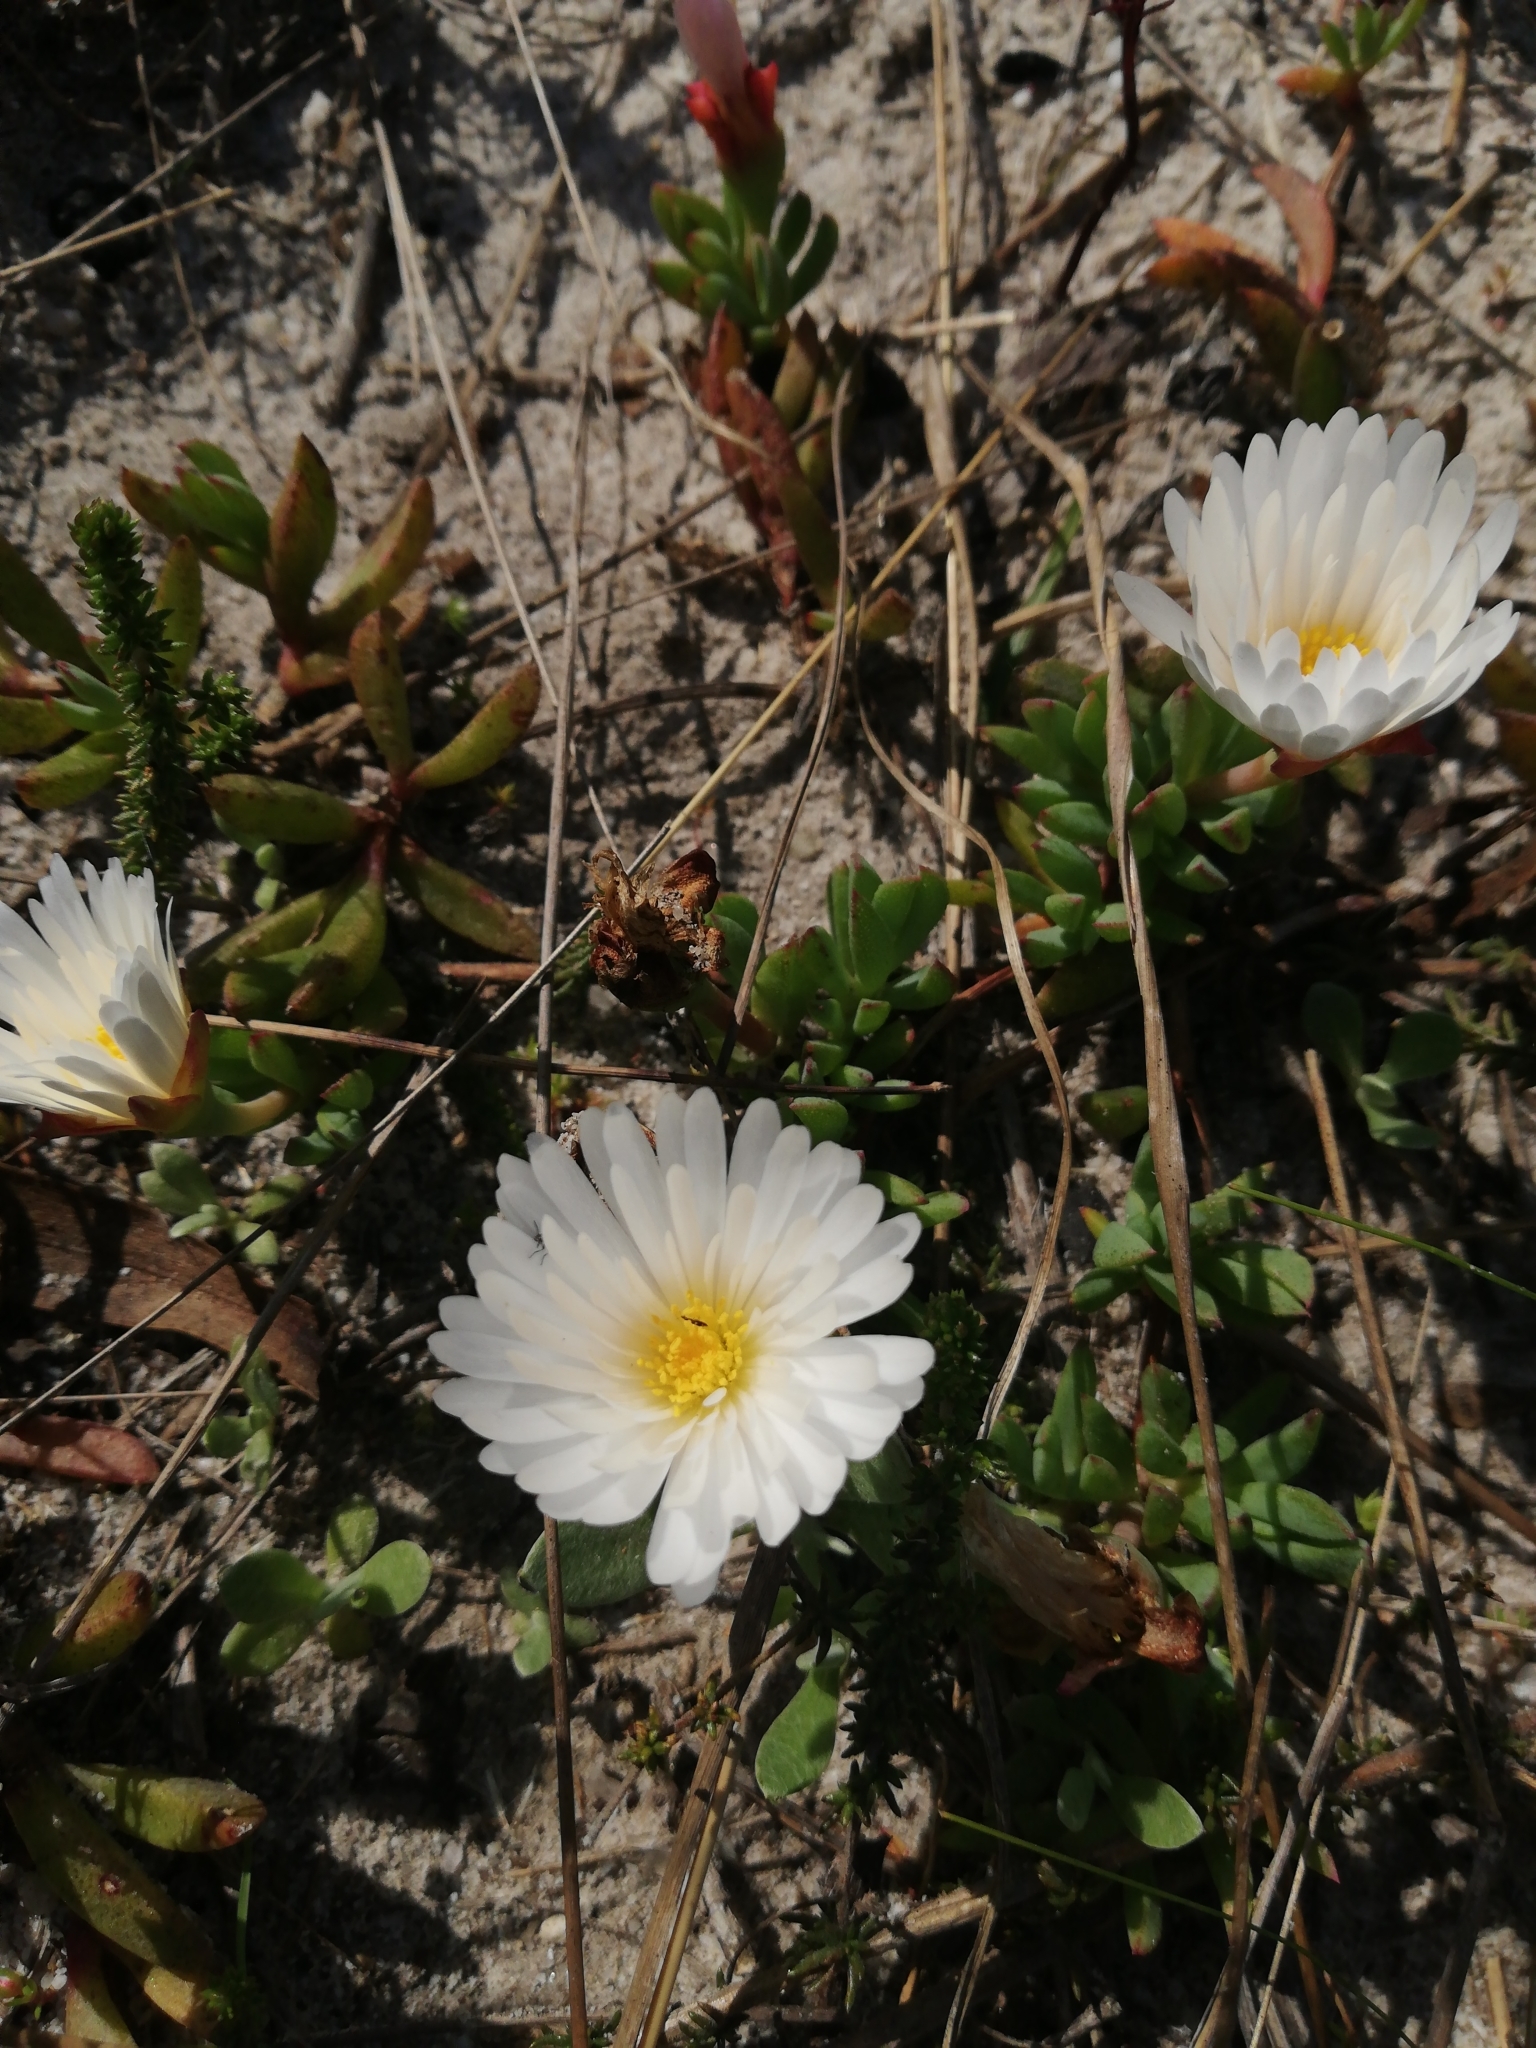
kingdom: Plantae
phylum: Tracheophyta
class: Magnoliopsida
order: Caryophyllales
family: Aizoaceae
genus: Lampranthus
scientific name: Lampranthus reptans
